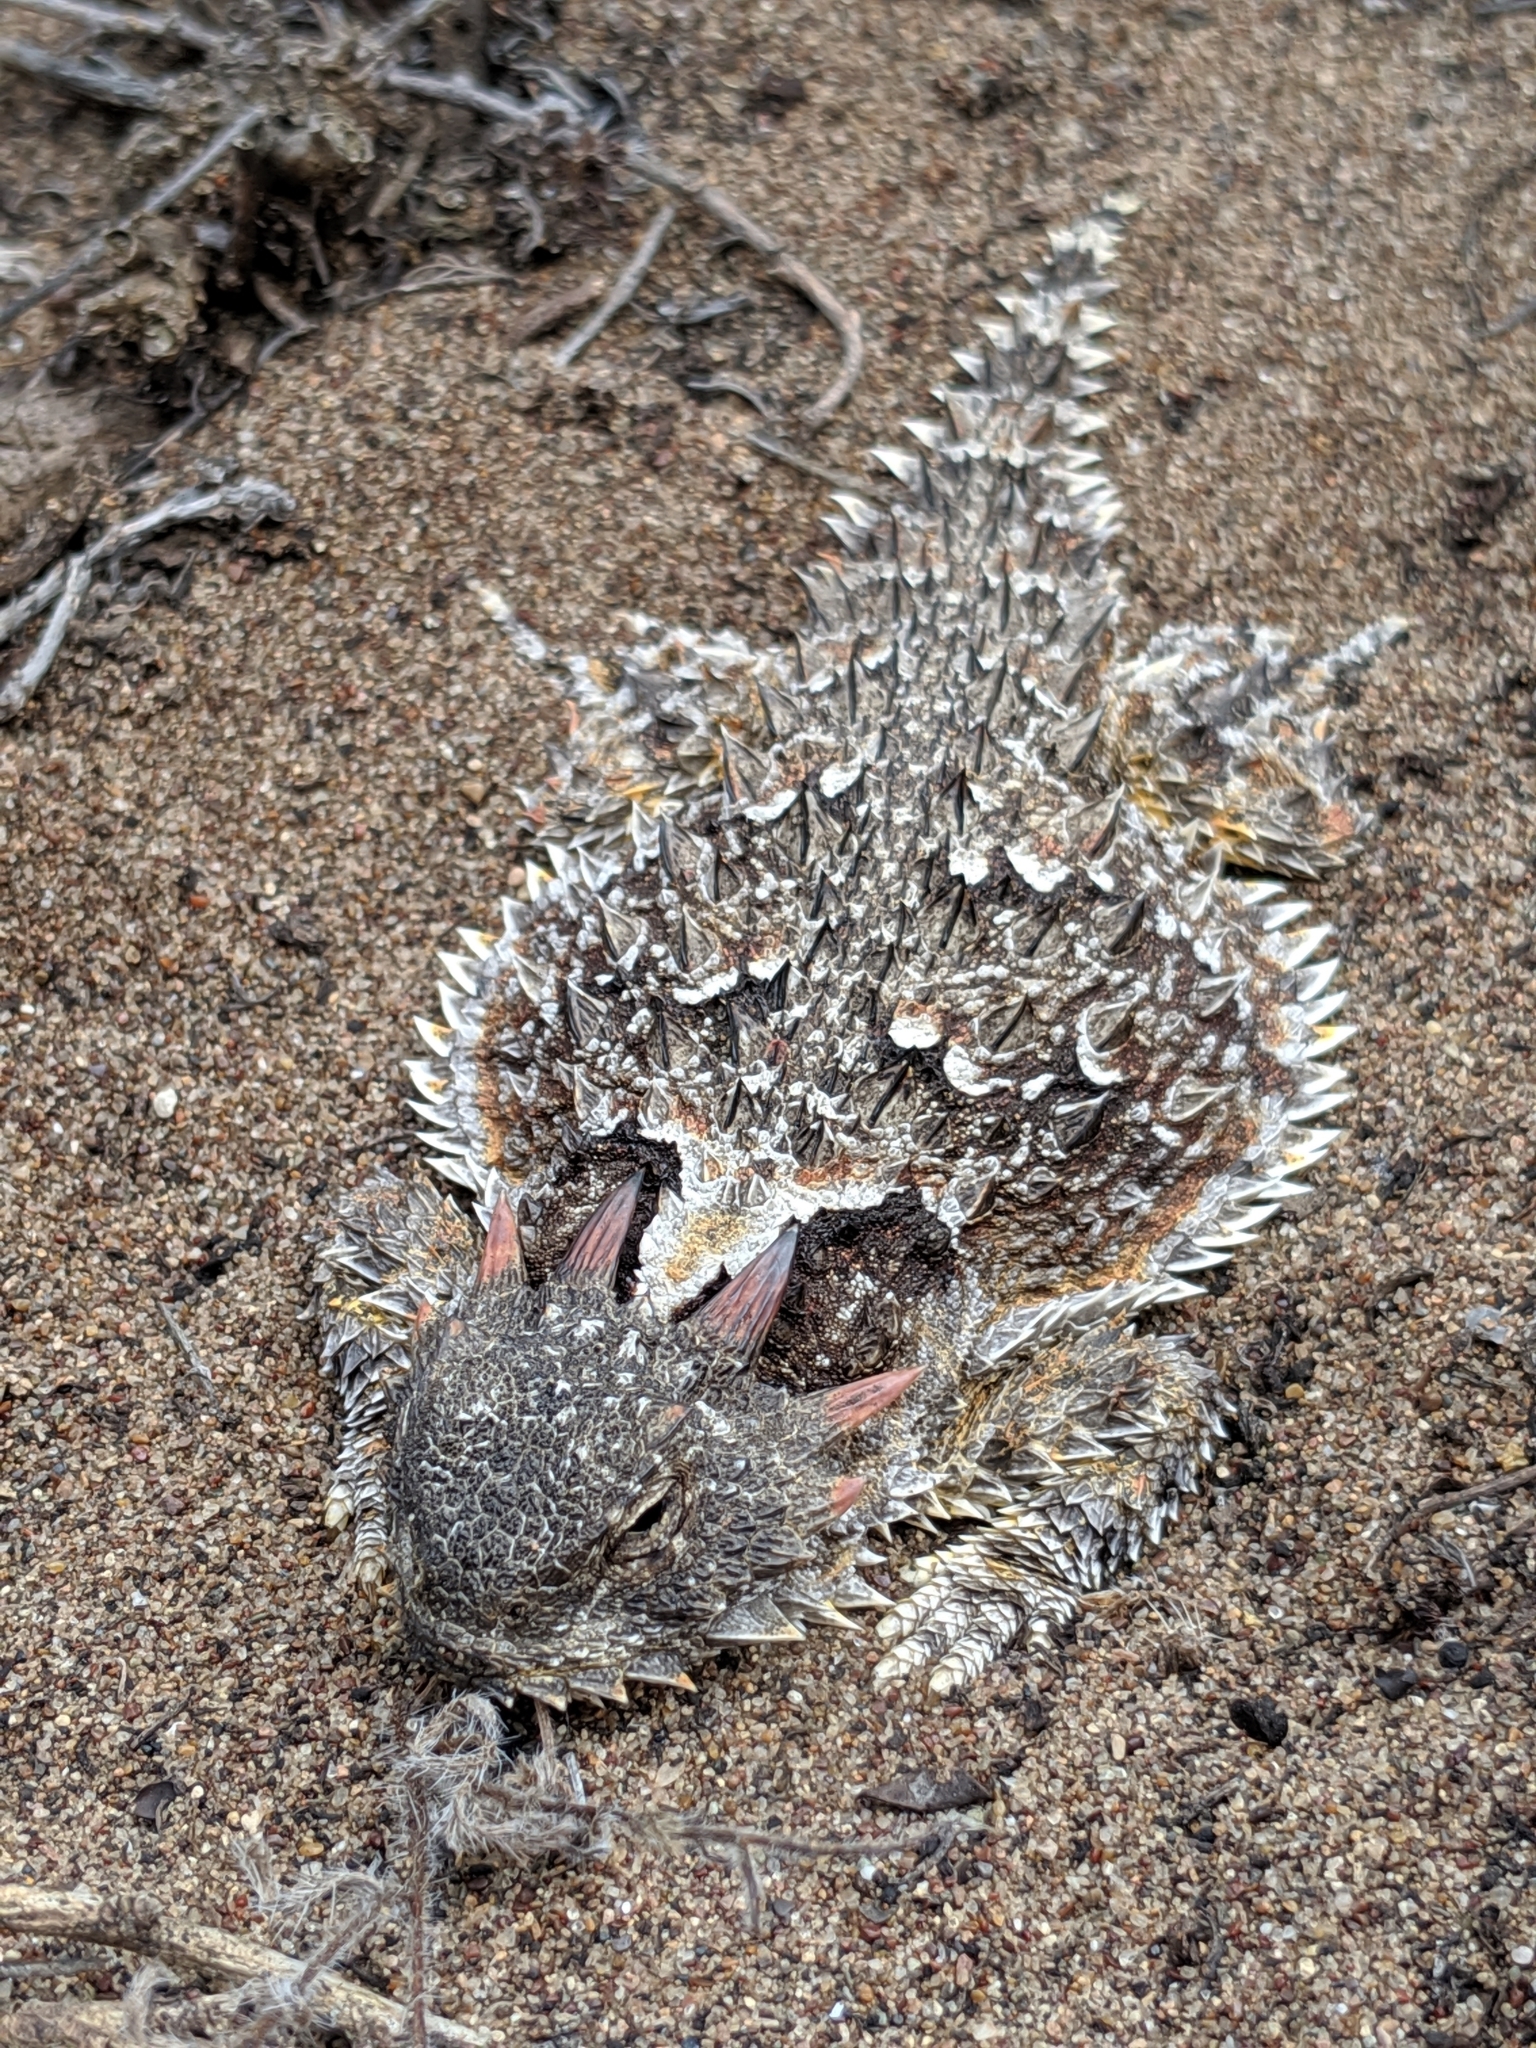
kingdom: Animalia
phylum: Chordata
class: Squamata
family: Phrynosomatidae
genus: Phrynosoma
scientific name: Phrynosoma blainvillii
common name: San diego horned lizard
